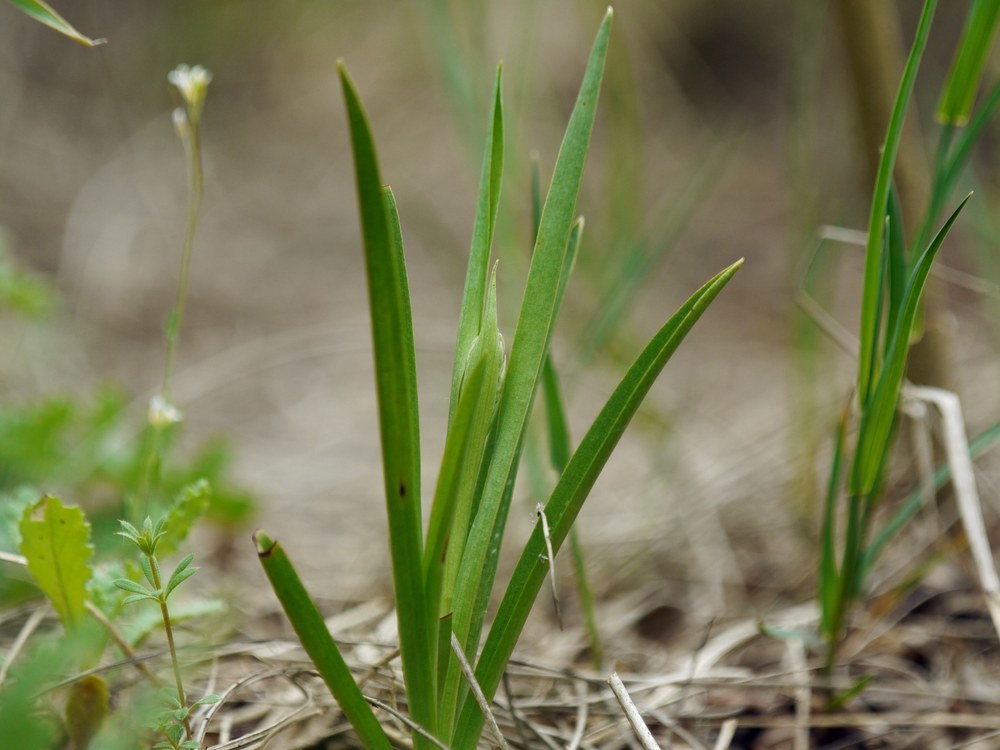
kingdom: Plantae
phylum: Tracheophyta
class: Liliopsida
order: Asparagales
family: Orchidaceae
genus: Anacamptis
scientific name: Anacamptis palustris
